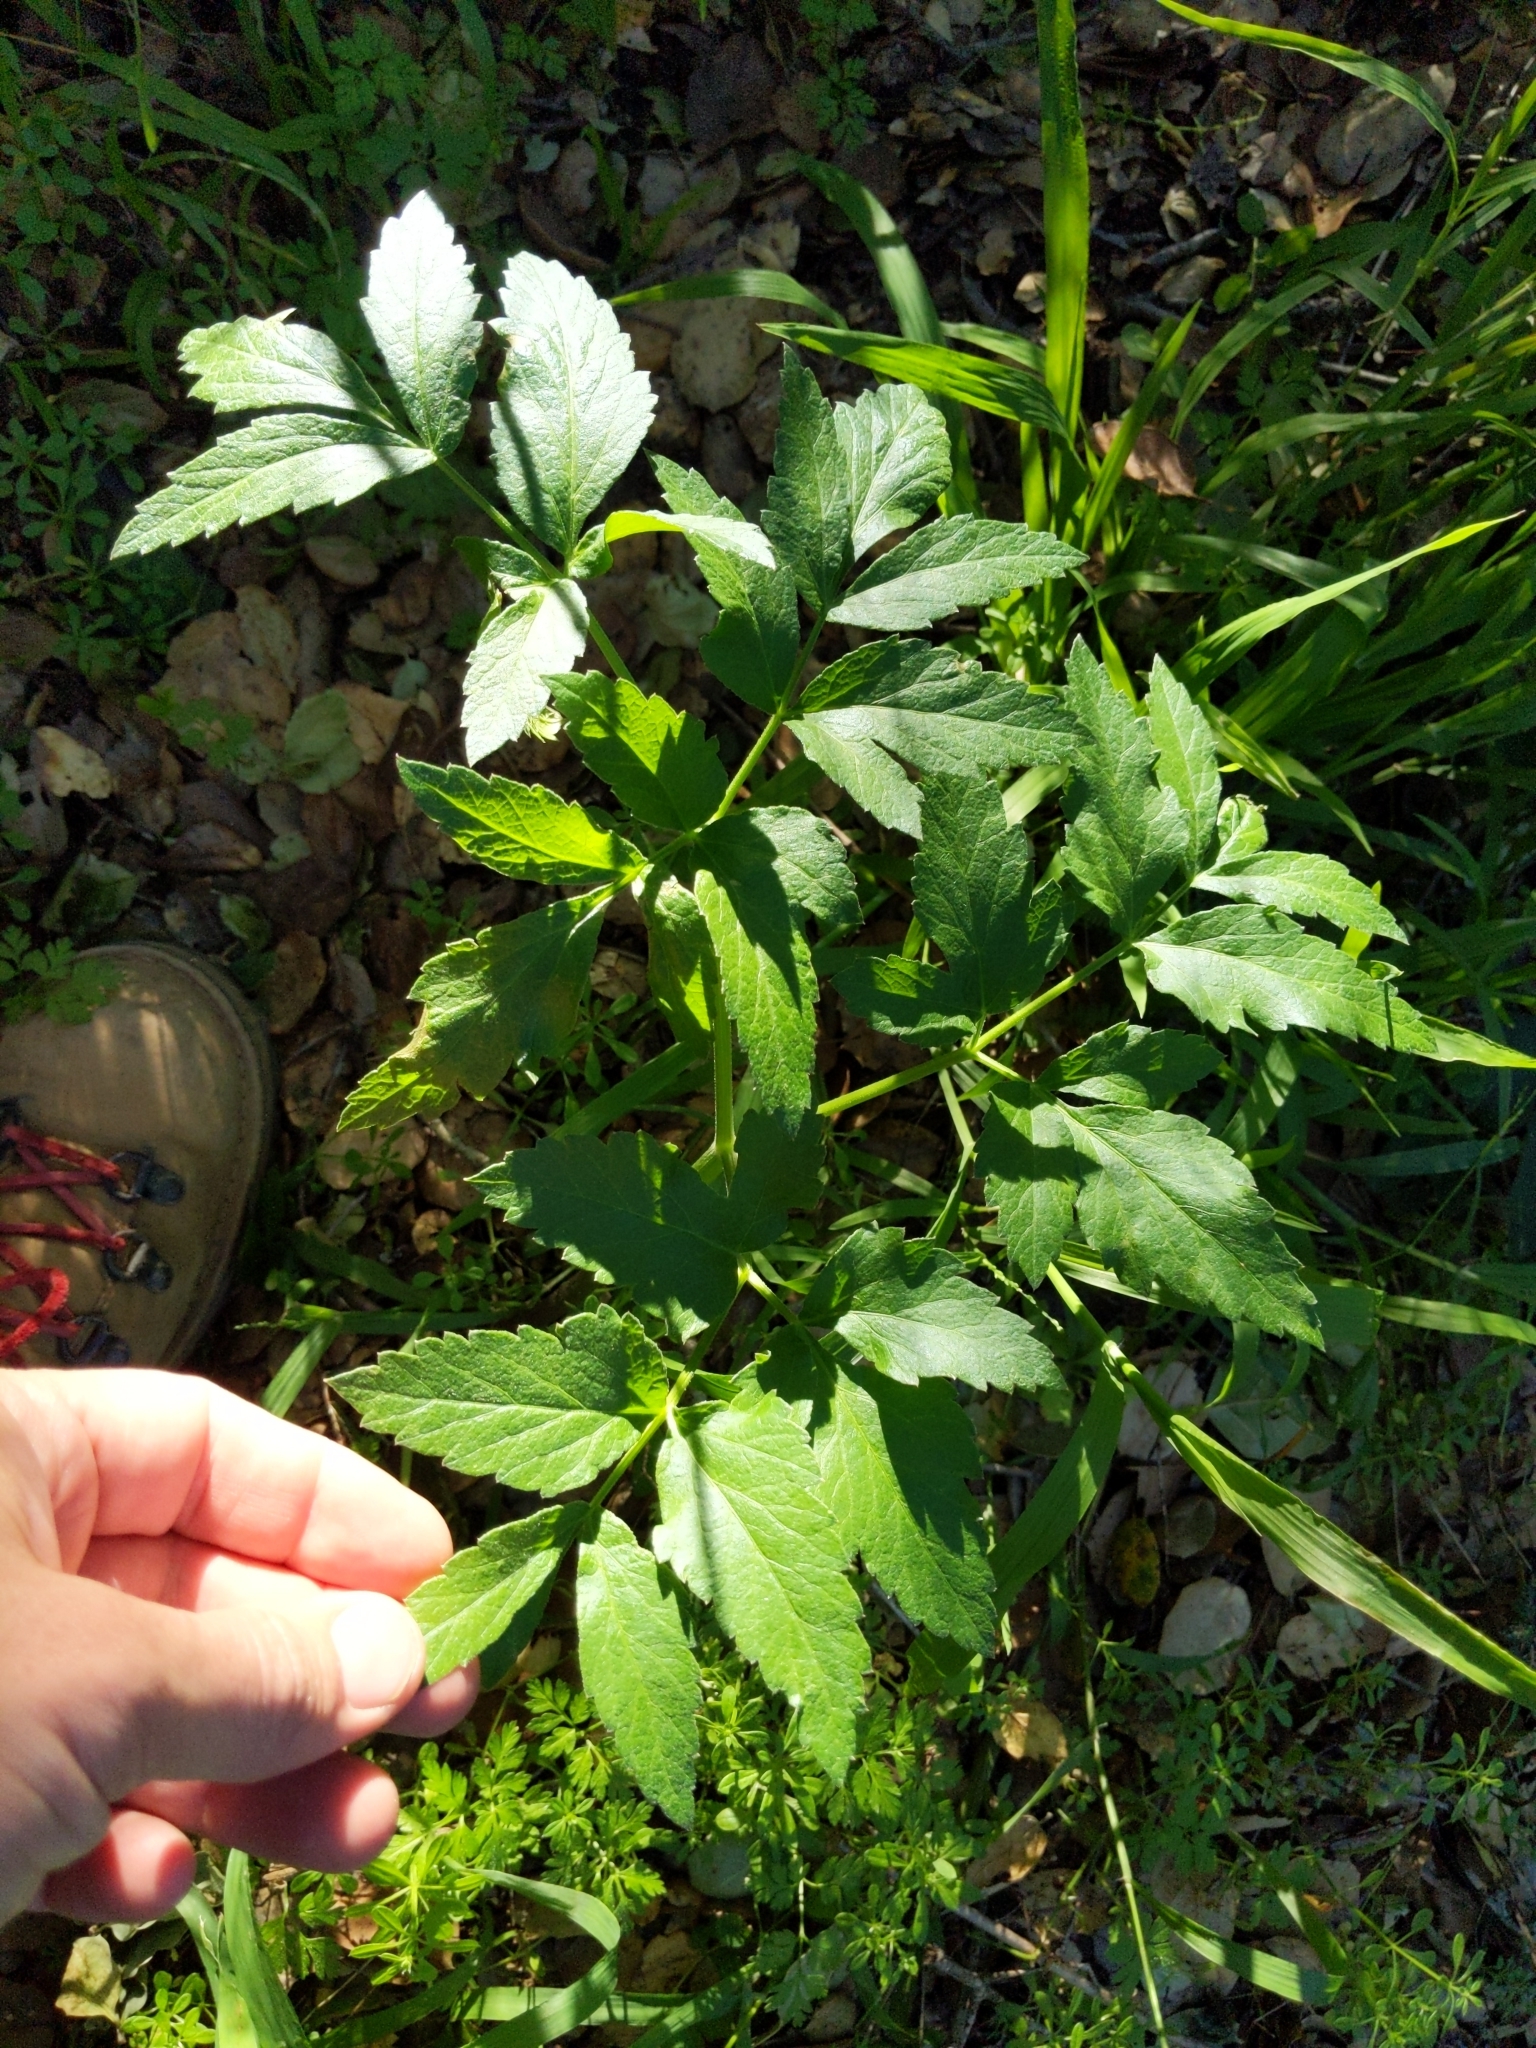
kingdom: Plantae
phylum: Tracheophyta
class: Magnoliopsida
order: Apiales
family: Apiaceae
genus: Angelica
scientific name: Angelica californica
